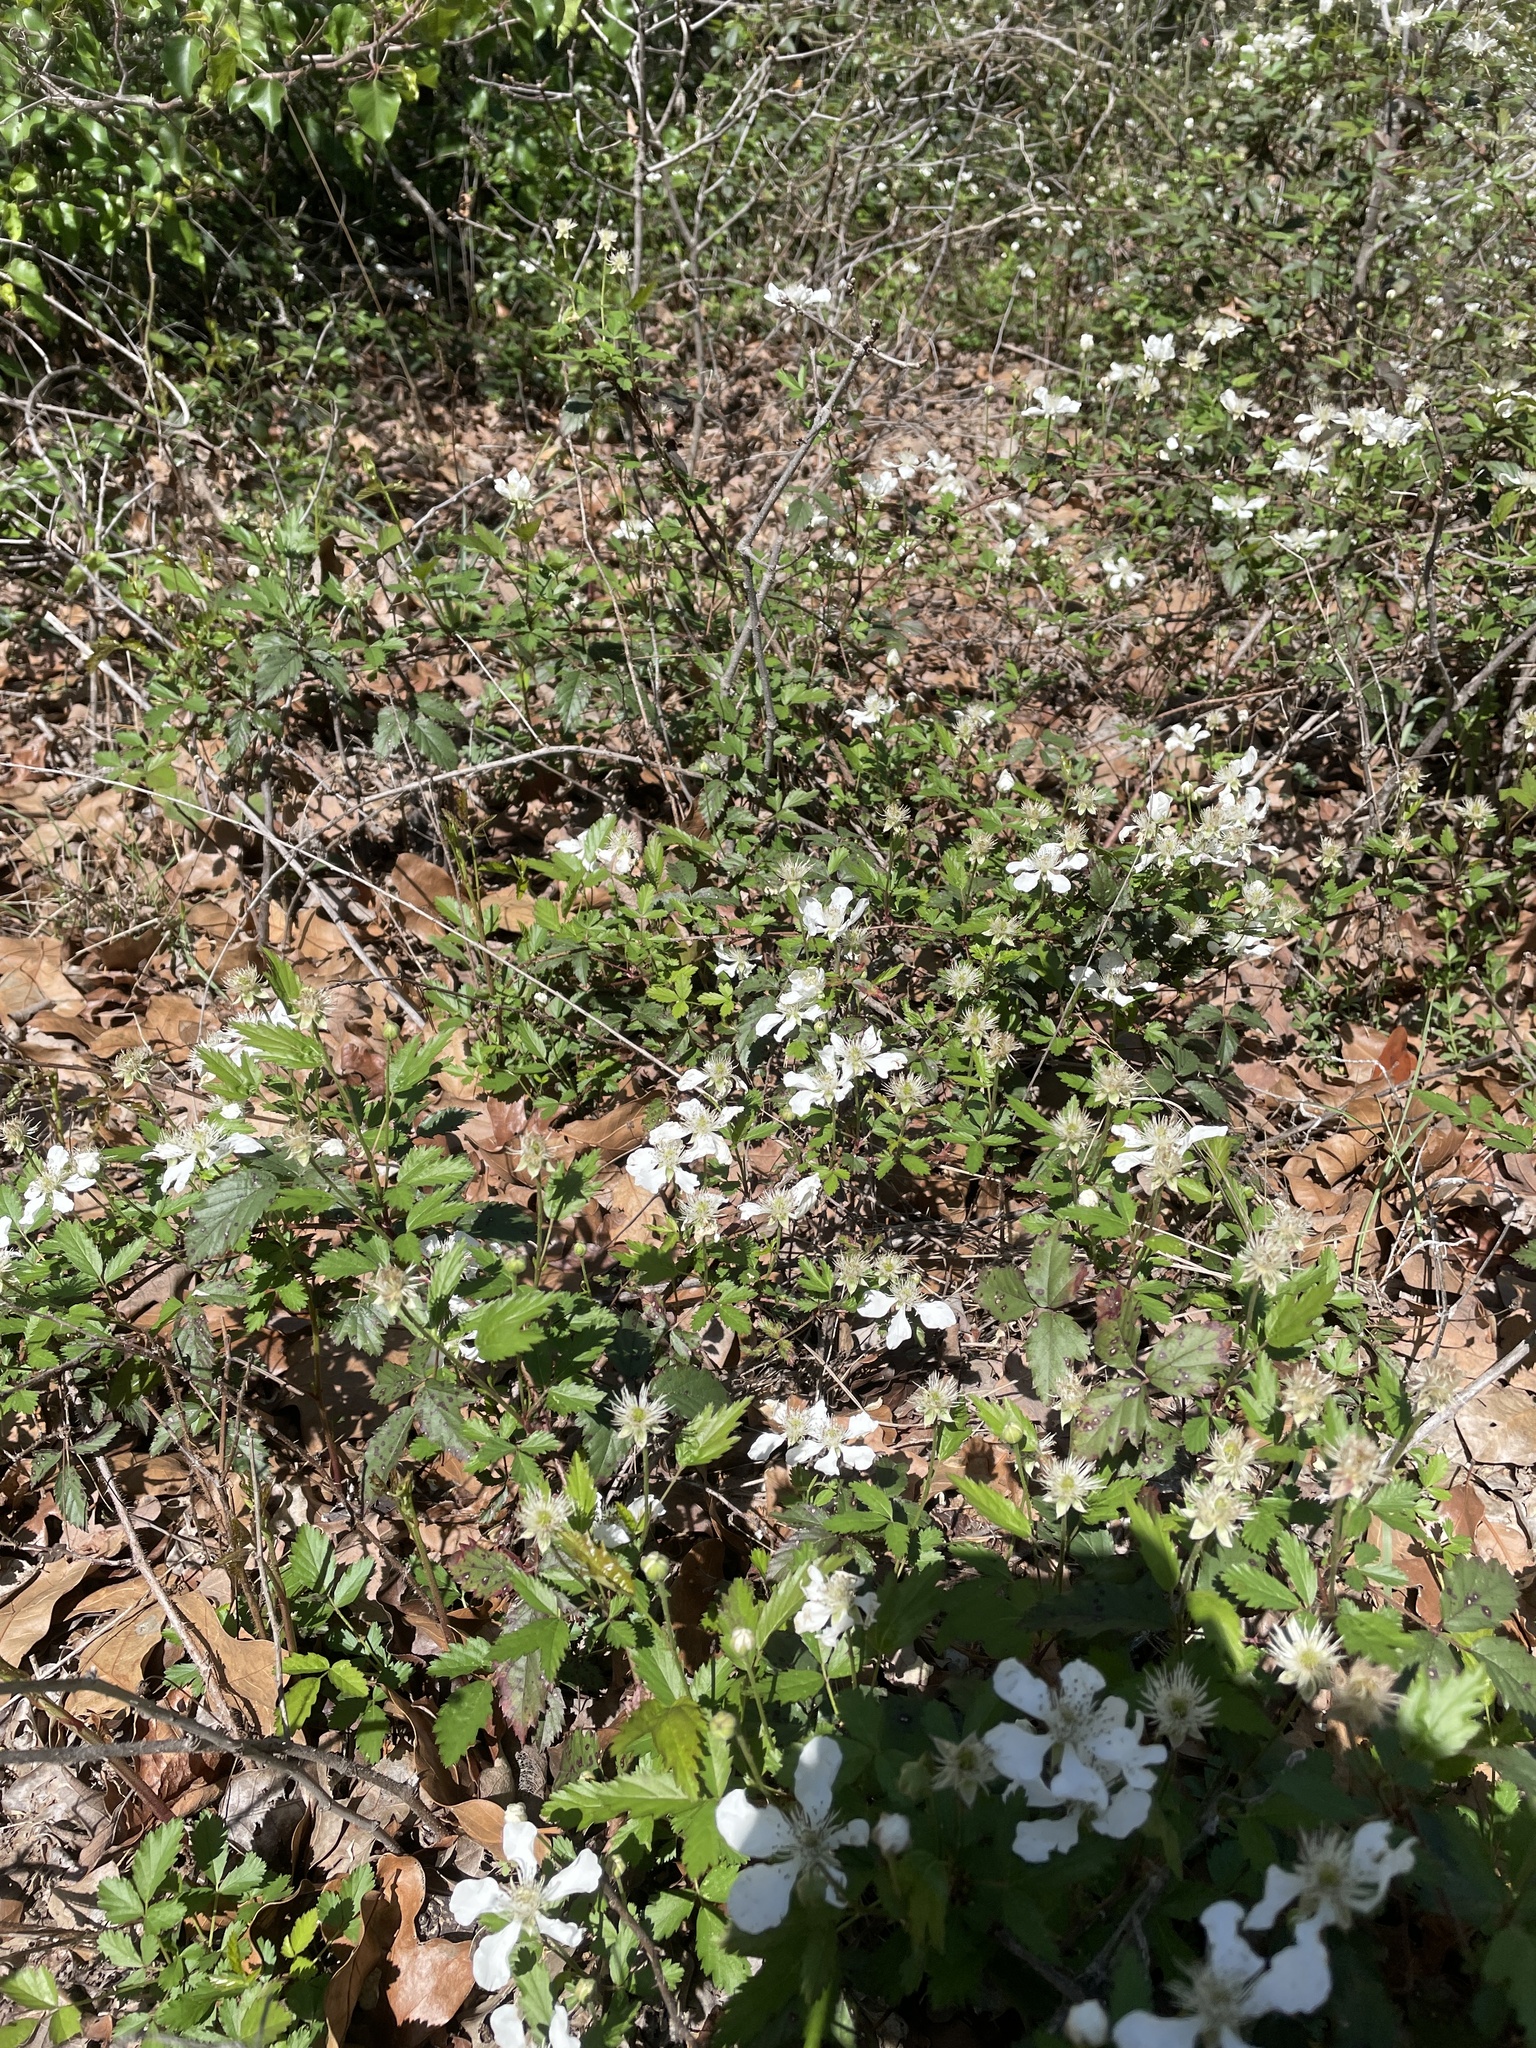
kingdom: Plantae
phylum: Tracheophyta
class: Magnoliopsida
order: Rosales
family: Rosaceae
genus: Rubus
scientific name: Rubus trivialis
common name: Southern dewberry
